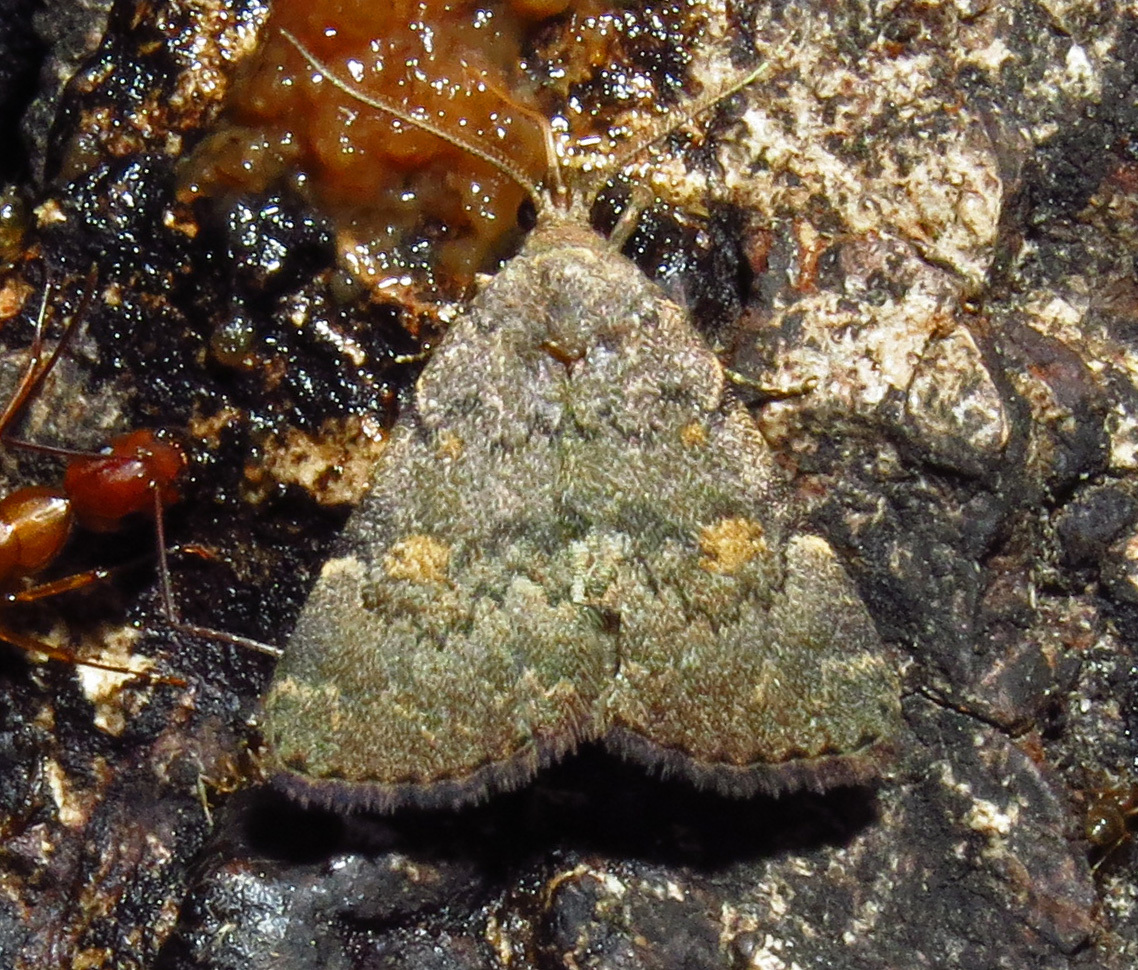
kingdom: Animalia
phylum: Arthropoda
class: Insecta
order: Lepidoptera
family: Erebidae
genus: Idia
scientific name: Idia aemula
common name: Common idia moth
